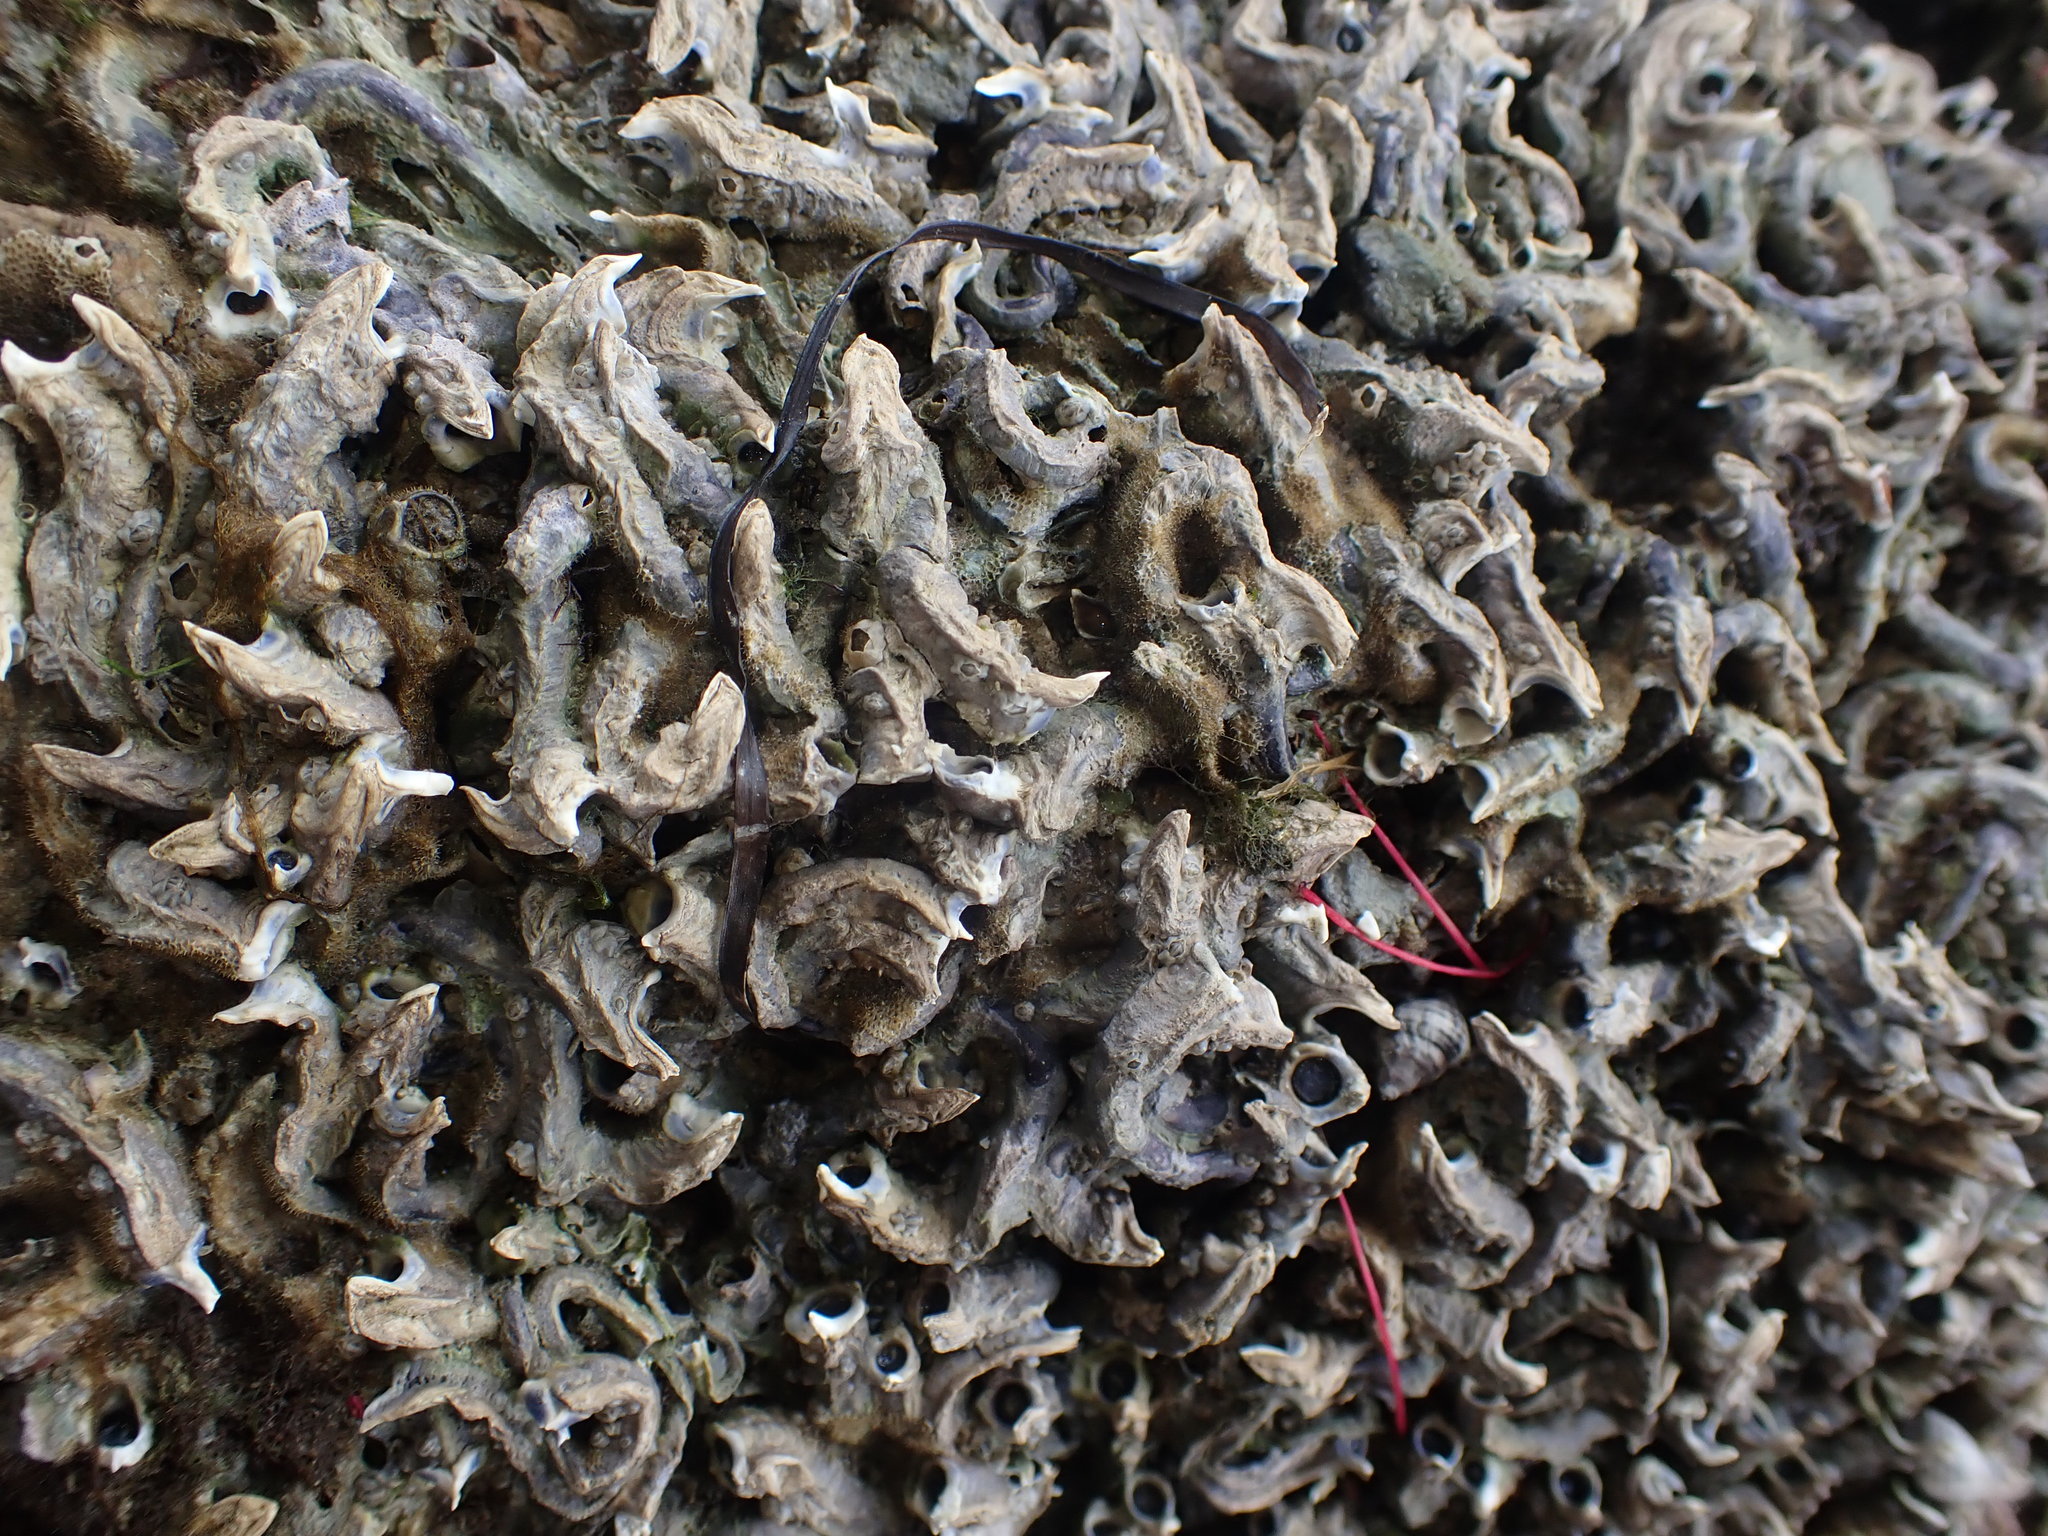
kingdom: Animalia
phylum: Annelida
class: Polychaeta
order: Sabellida
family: Serpulidae
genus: Spirobranchus
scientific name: Spirobranchus cariniferus
